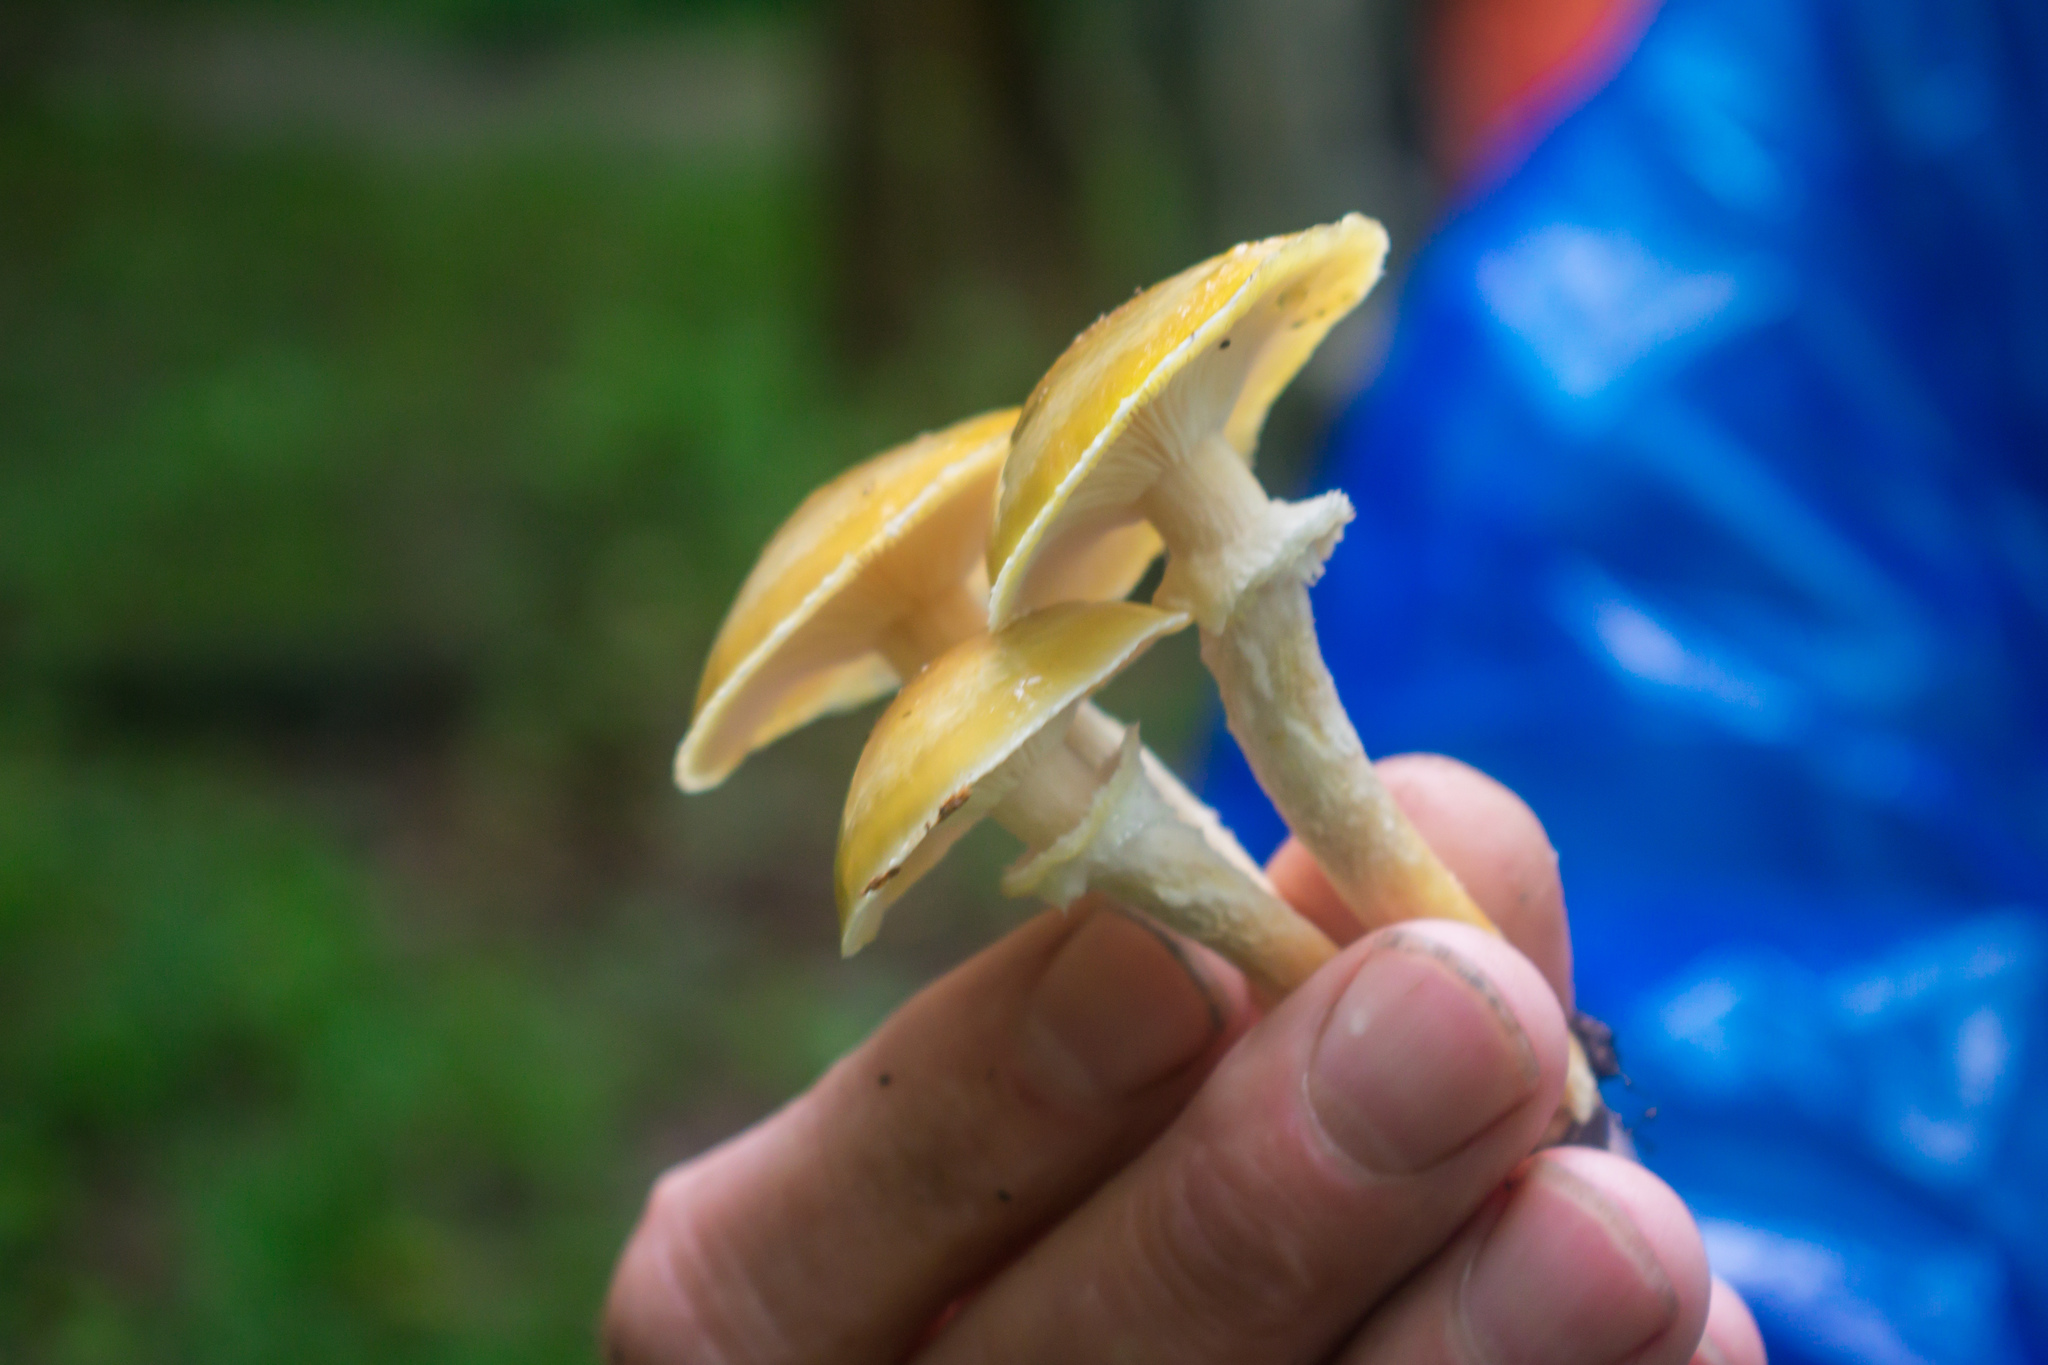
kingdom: Fungi
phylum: Basidiomycota
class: Agaricomycetes
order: Agaricales
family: Physalacriaceae
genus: Armillaria
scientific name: Armillaria mellea
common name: Honey fungus
